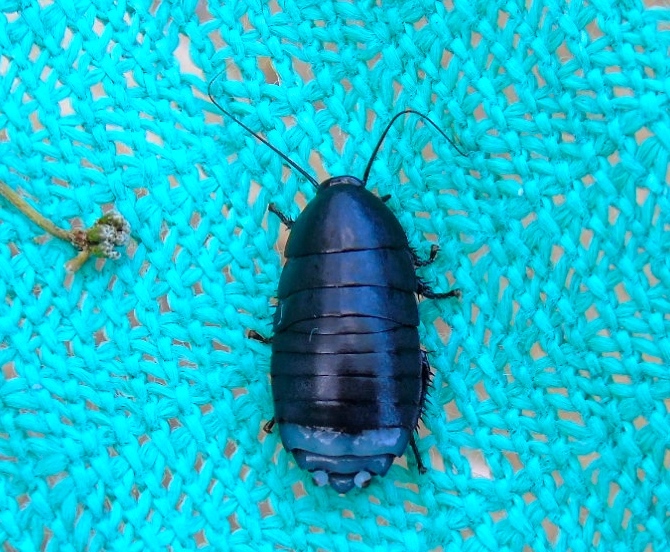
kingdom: Animalia
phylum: Arthropoda
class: Insecta
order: Blattodea
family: Ectobiidae
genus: Nyctibora
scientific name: Nyctibora
